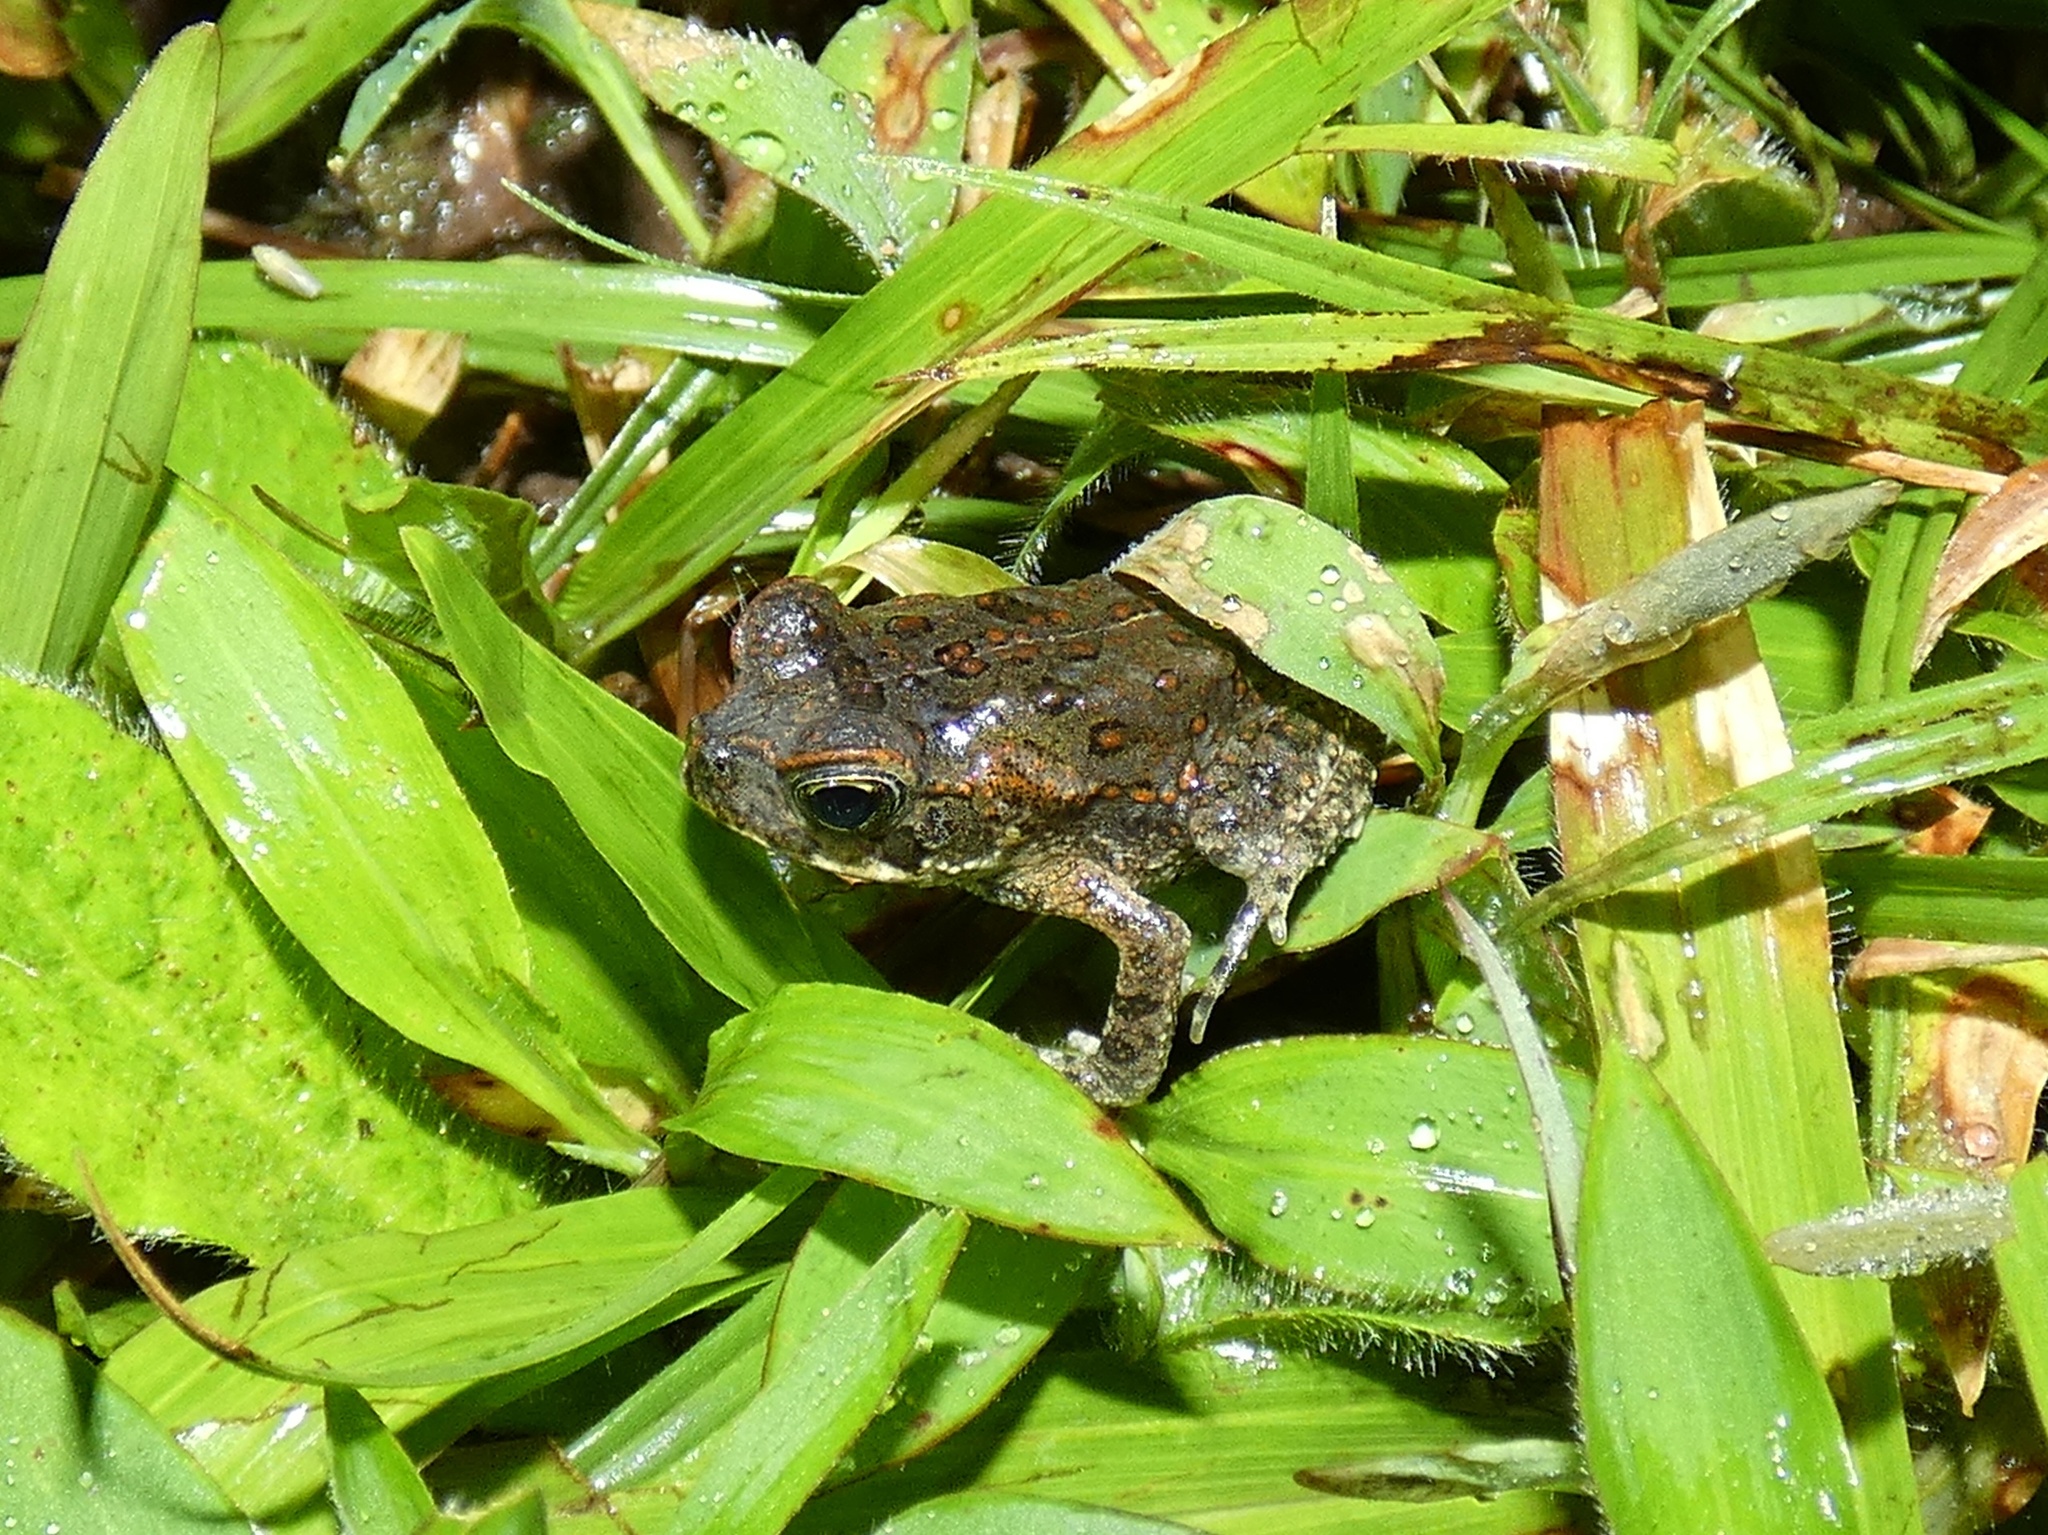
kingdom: Animalia
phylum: Chordata
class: Amphibia
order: Anura
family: Bufonidae
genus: Rhinella
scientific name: Rhinella horribilis
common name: Mesoamerican cane toad
